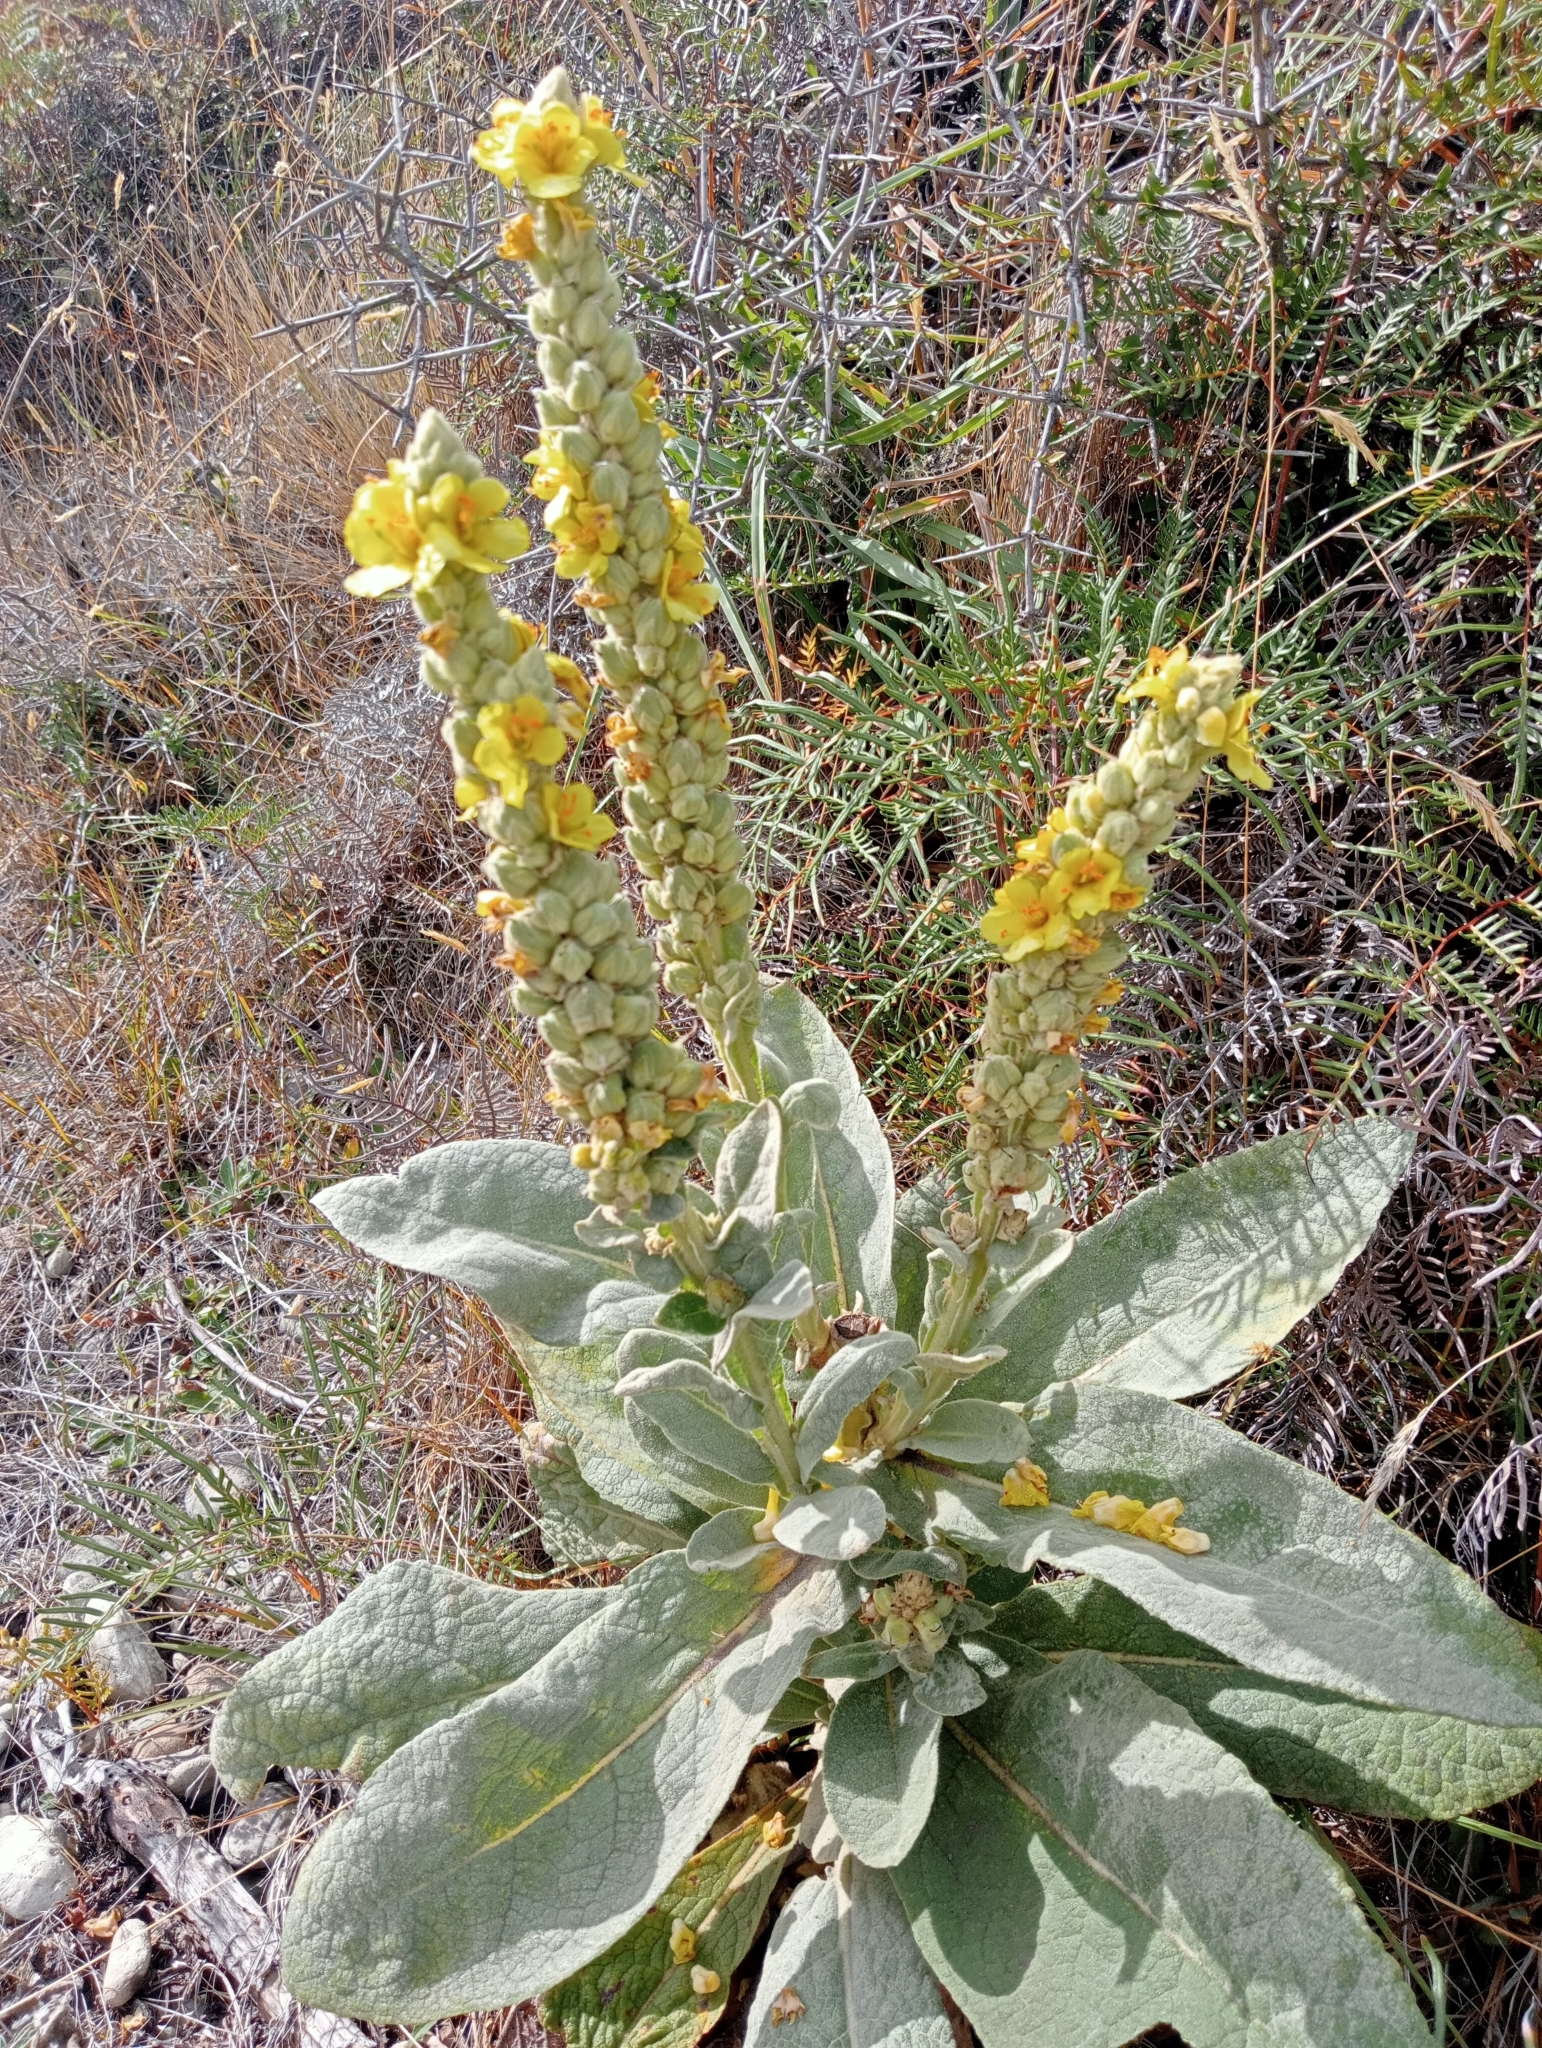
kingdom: Plantae
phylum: Tracheophyta
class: Magnoliopsida
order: Lamiales
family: Scrophulariaceae
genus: Verbascum
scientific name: Verbascum thapsus
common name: Common mullein
